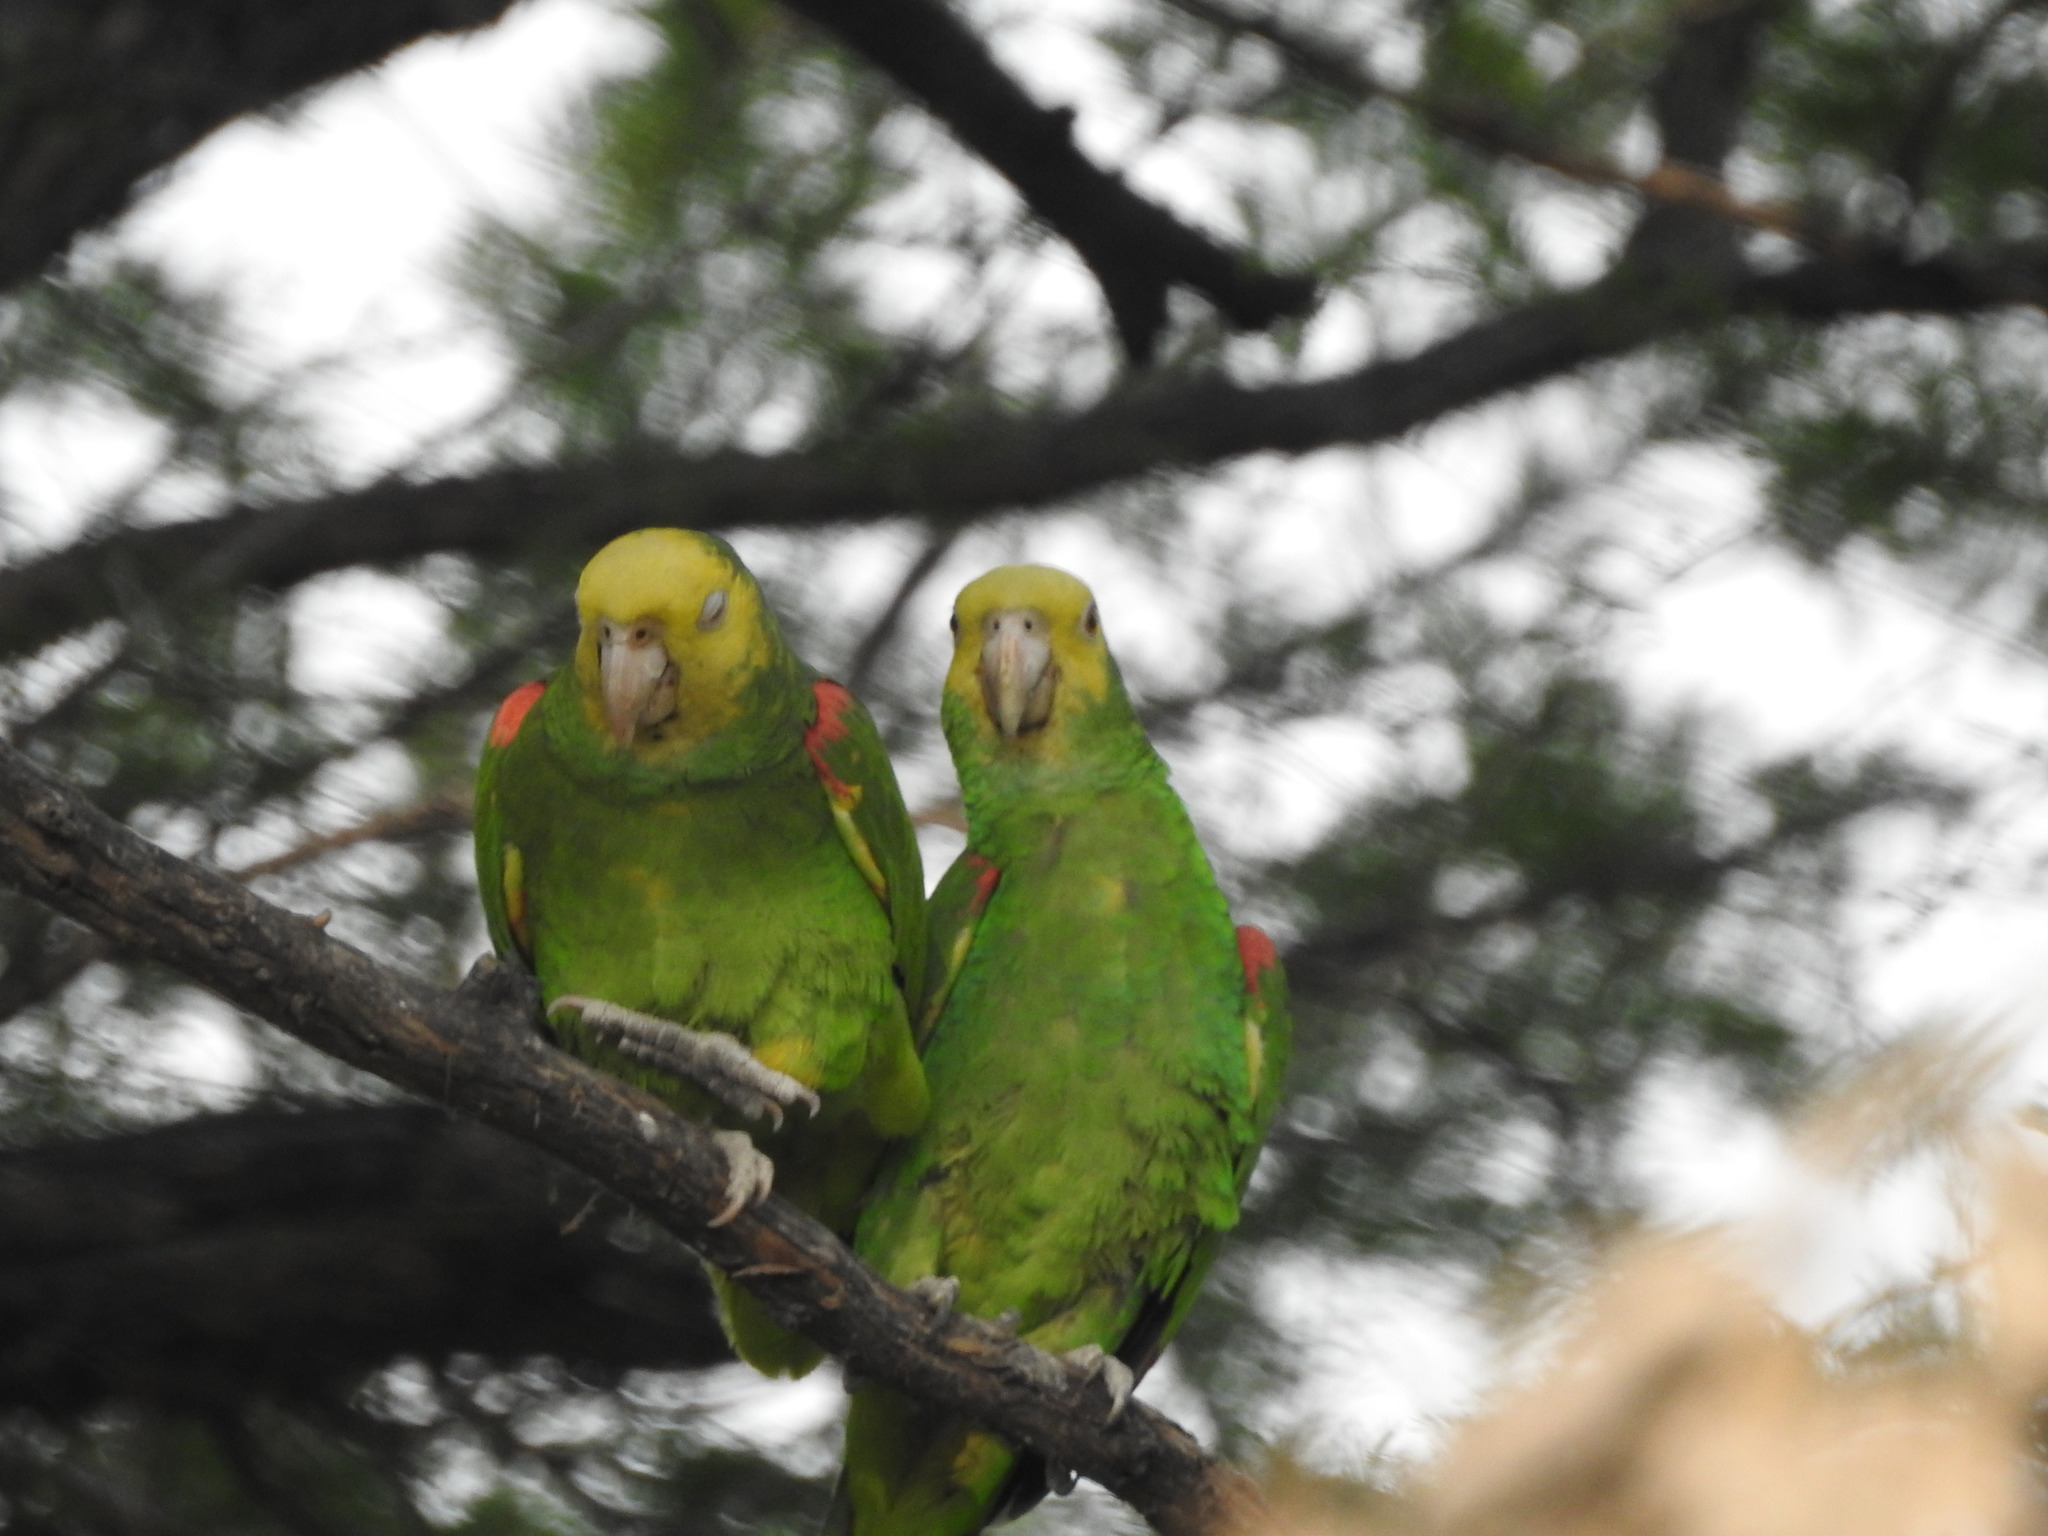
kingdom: Animalia
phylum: Chordata
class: Aves
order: Psittaciformes
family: Psittacidae
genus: Amazona
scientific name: Amazona oratrix
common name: Yellow-headed amazon
